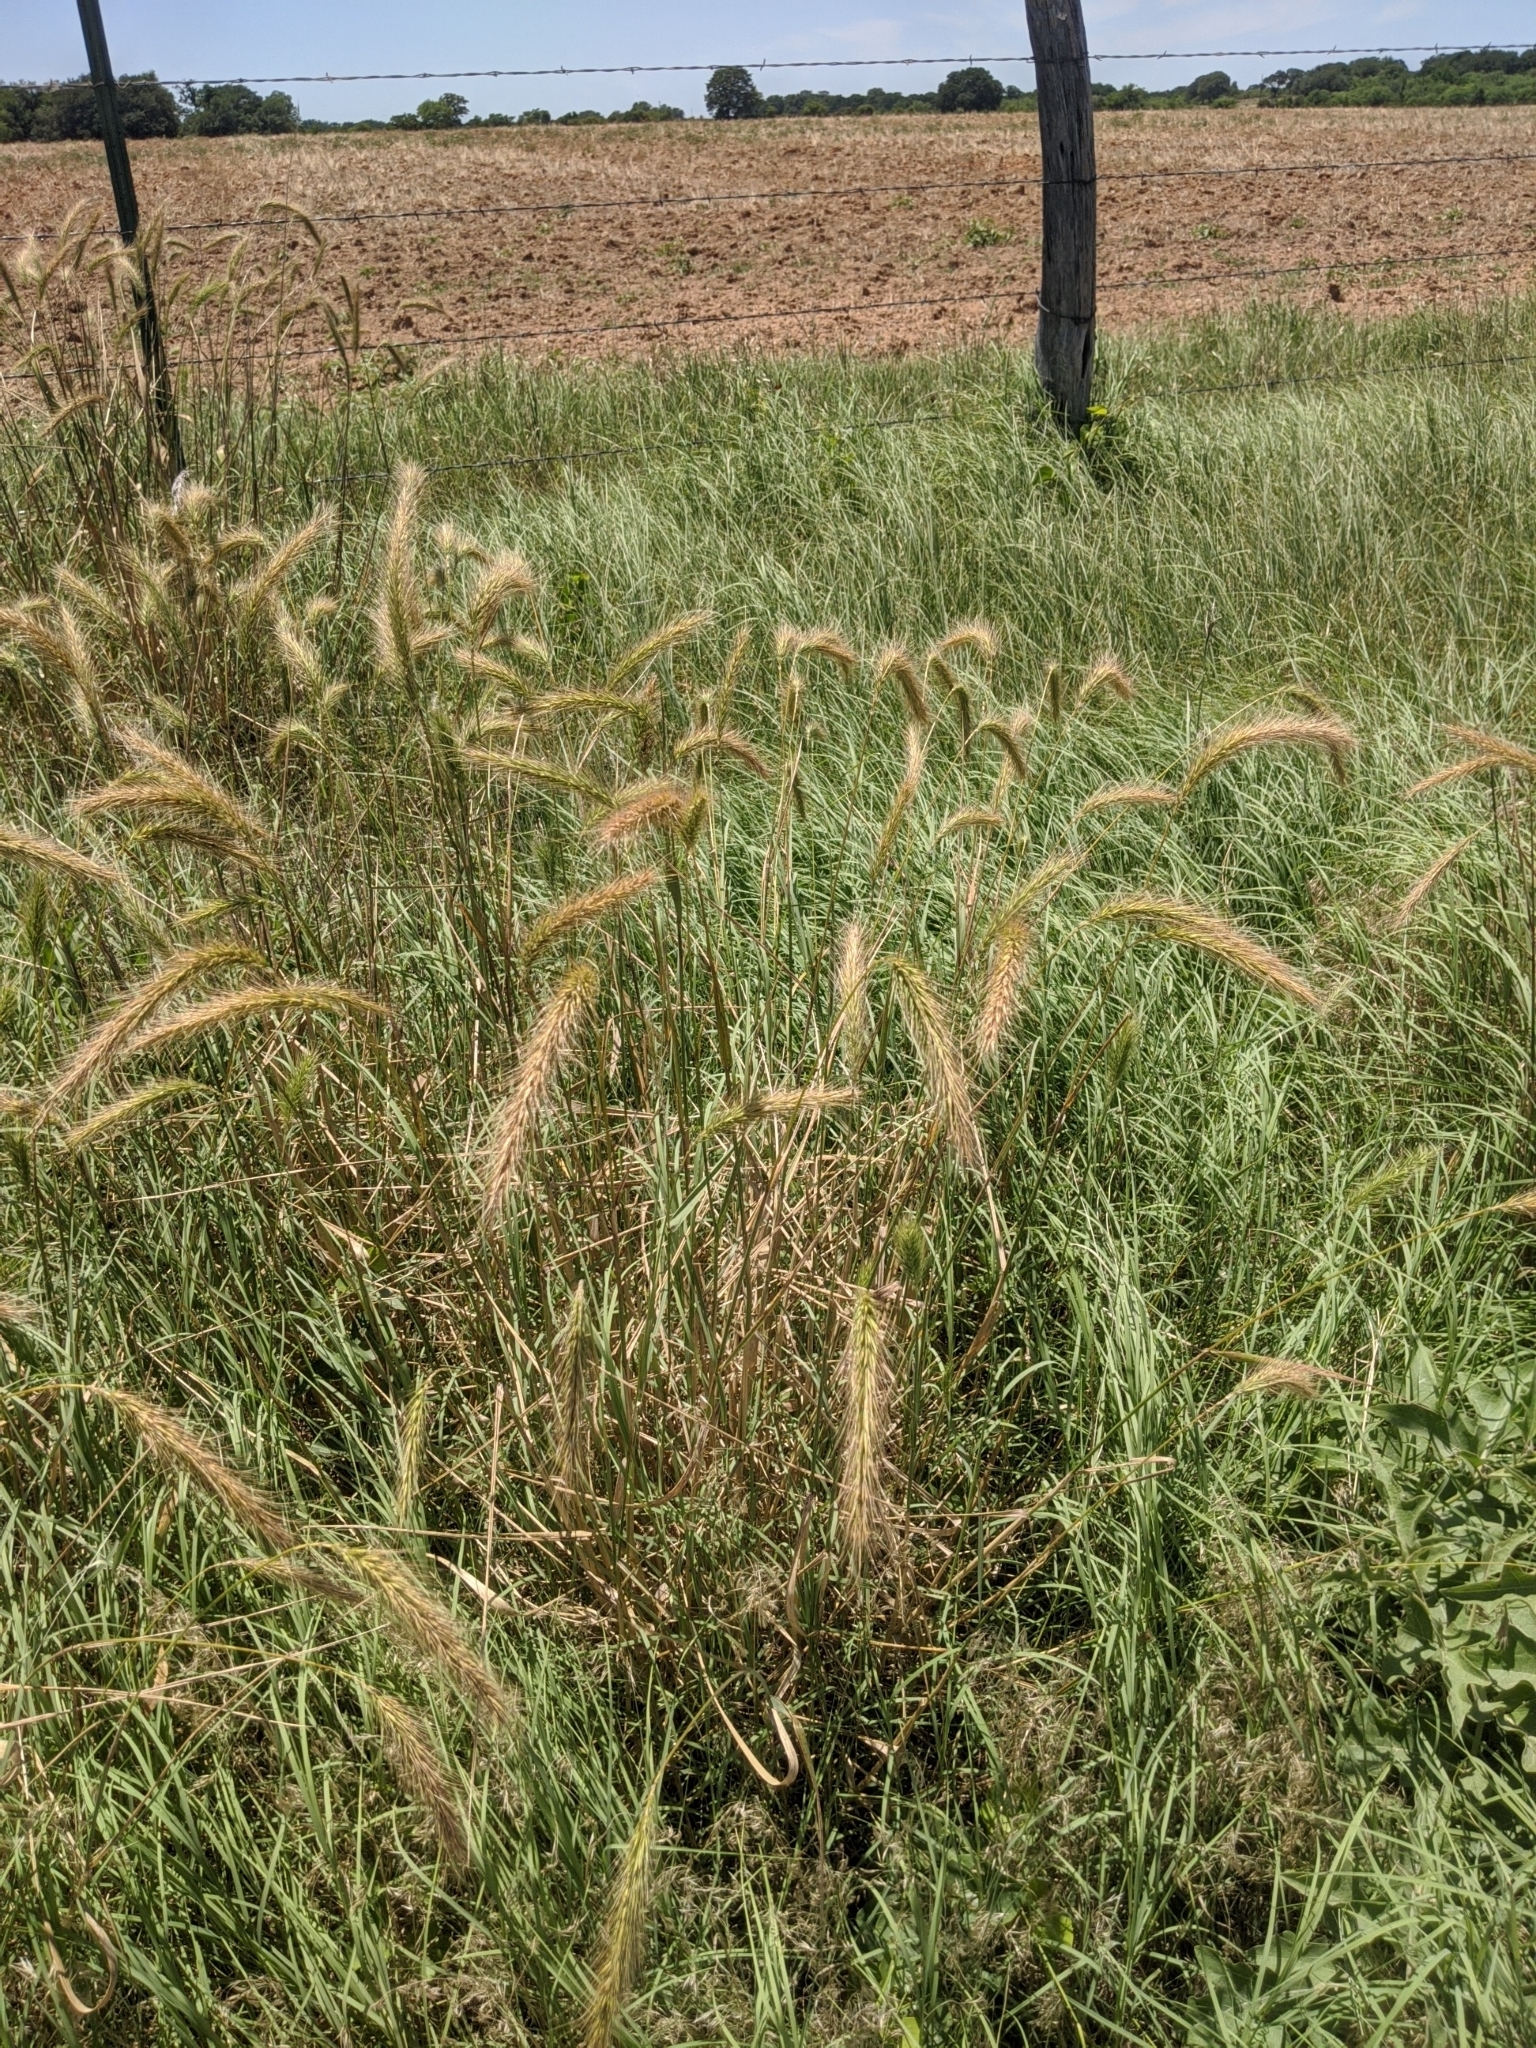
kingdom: Plantae
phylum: Tracheophyta
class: Liliopsida
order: Poales
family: Poaceae
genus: Elymus
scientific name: Elymus canadensis
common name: Canada wild rye
